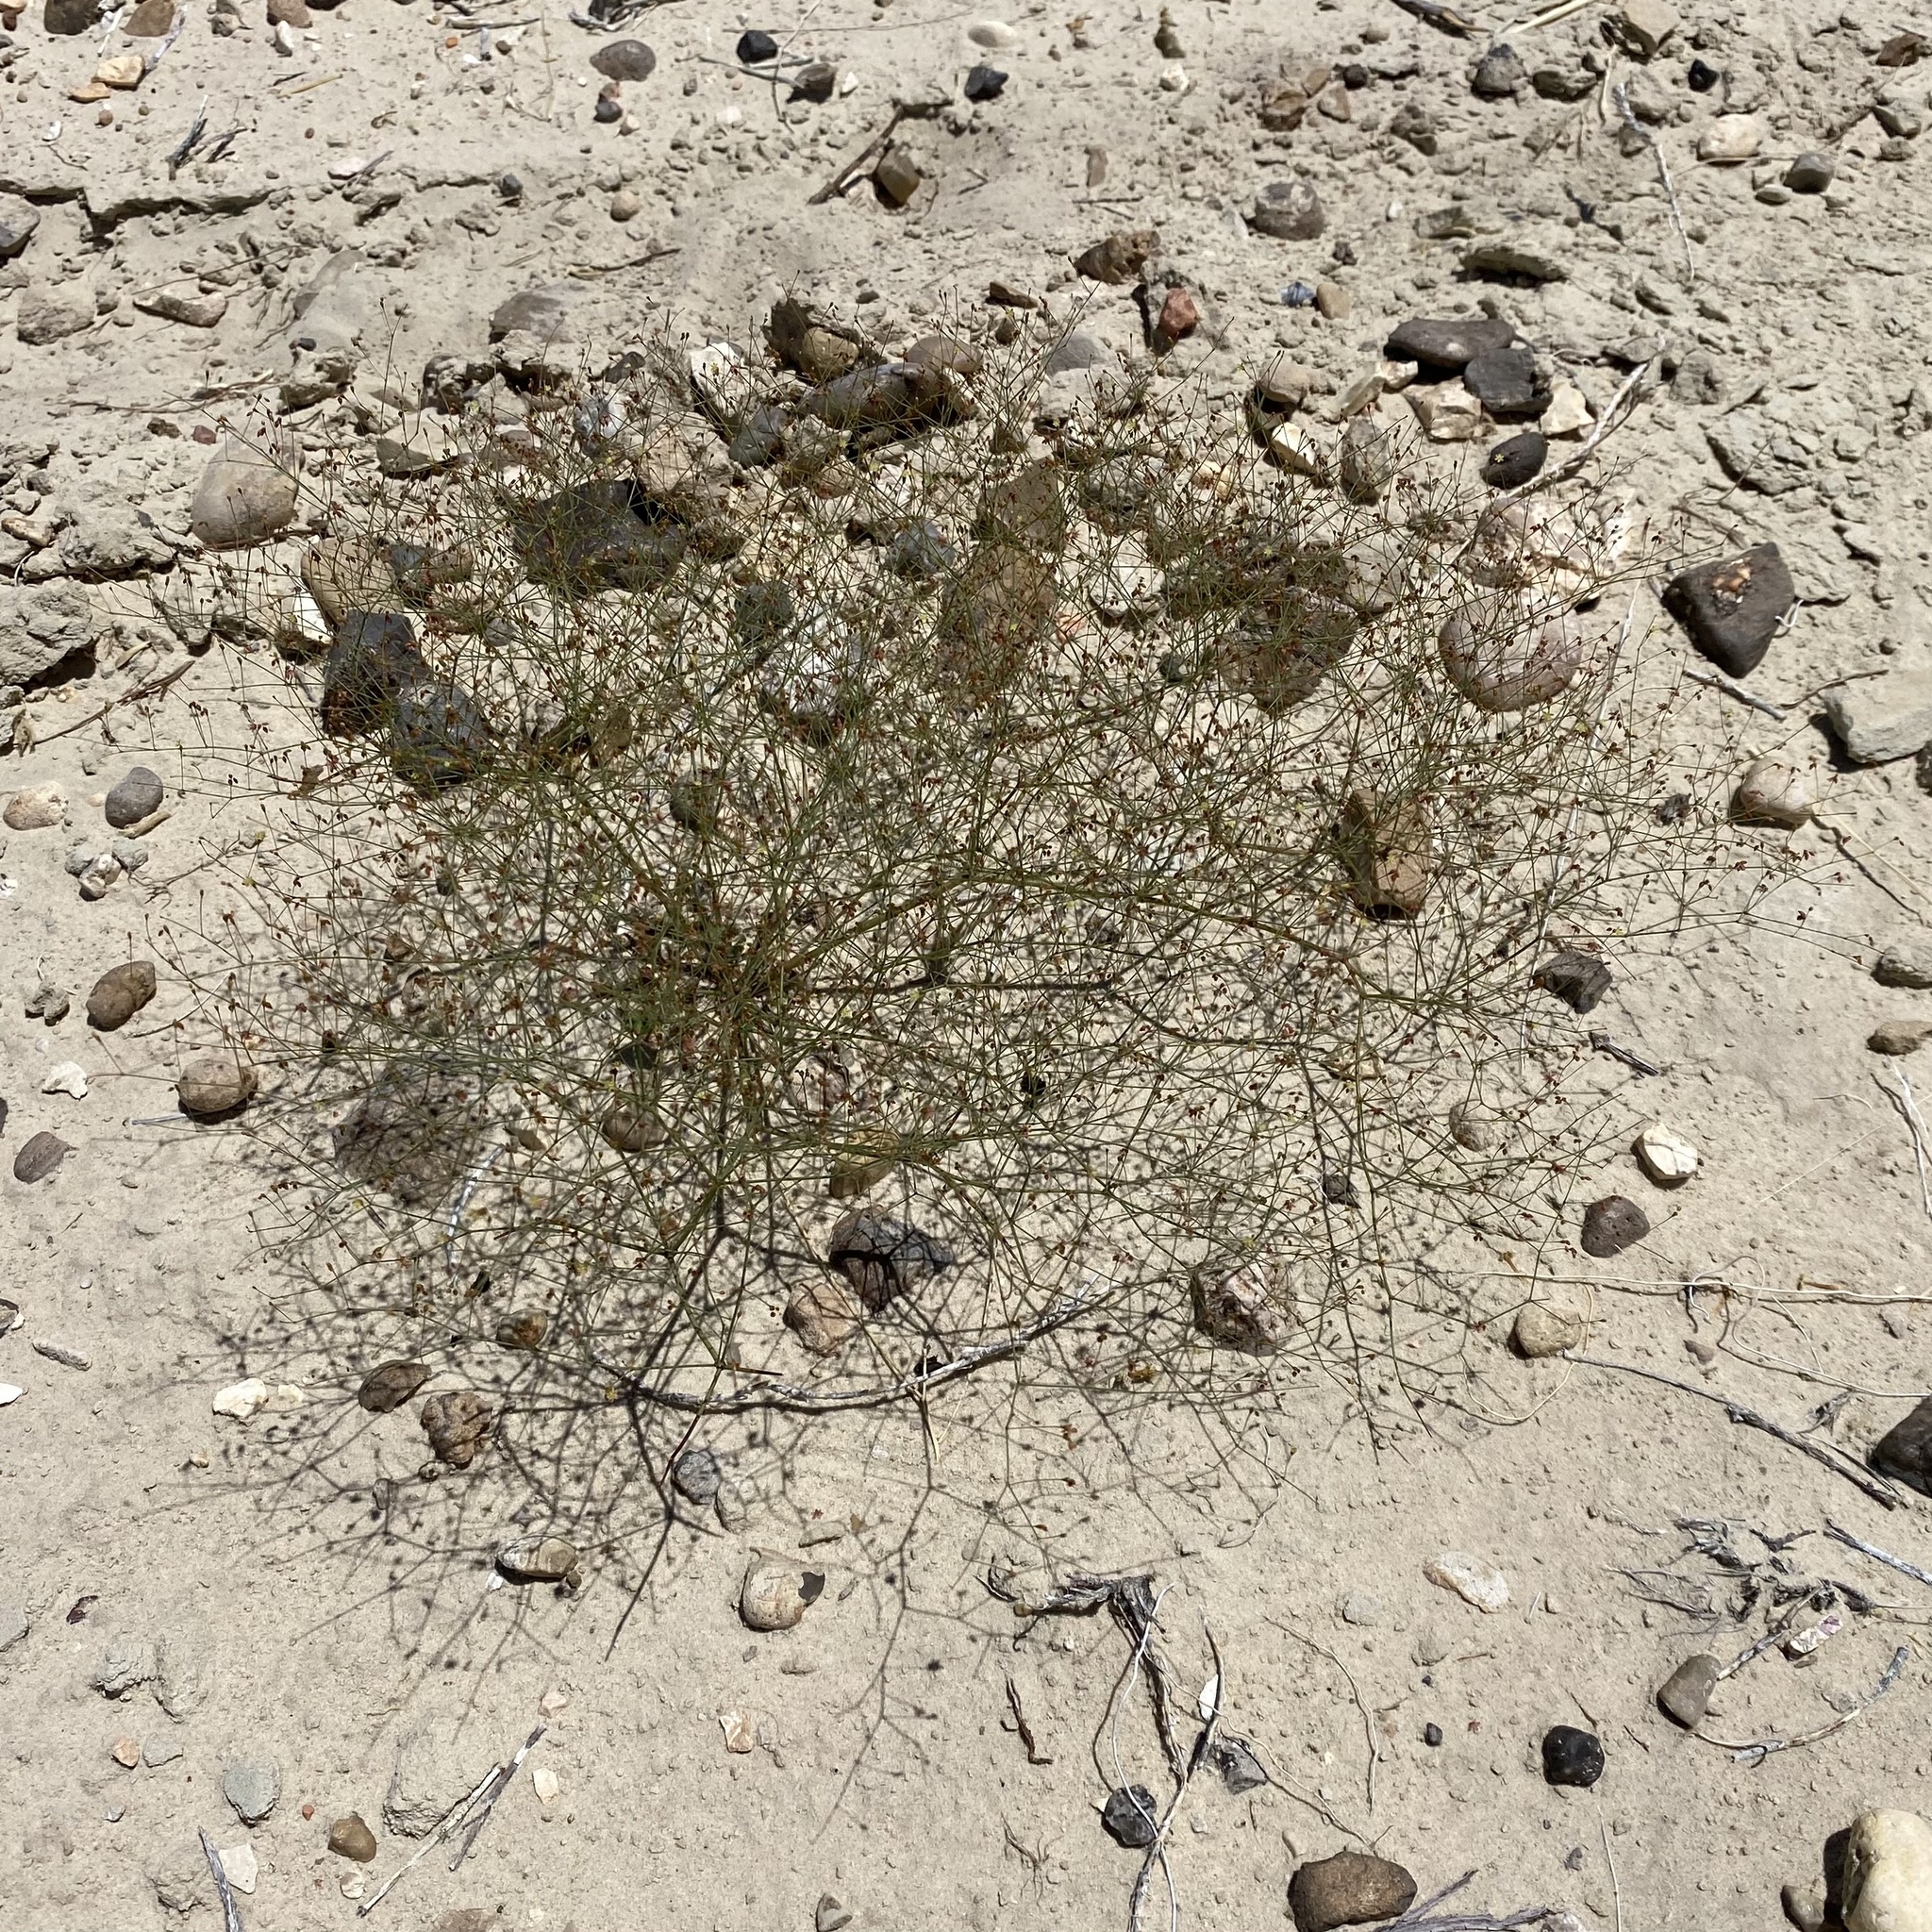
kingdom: Plantae
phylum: Tracheophyta
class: Magnoliopsida
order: Caryophyllales
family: Polygonaceae
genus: Eriogonum
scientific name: Eriogonum wetherillii
